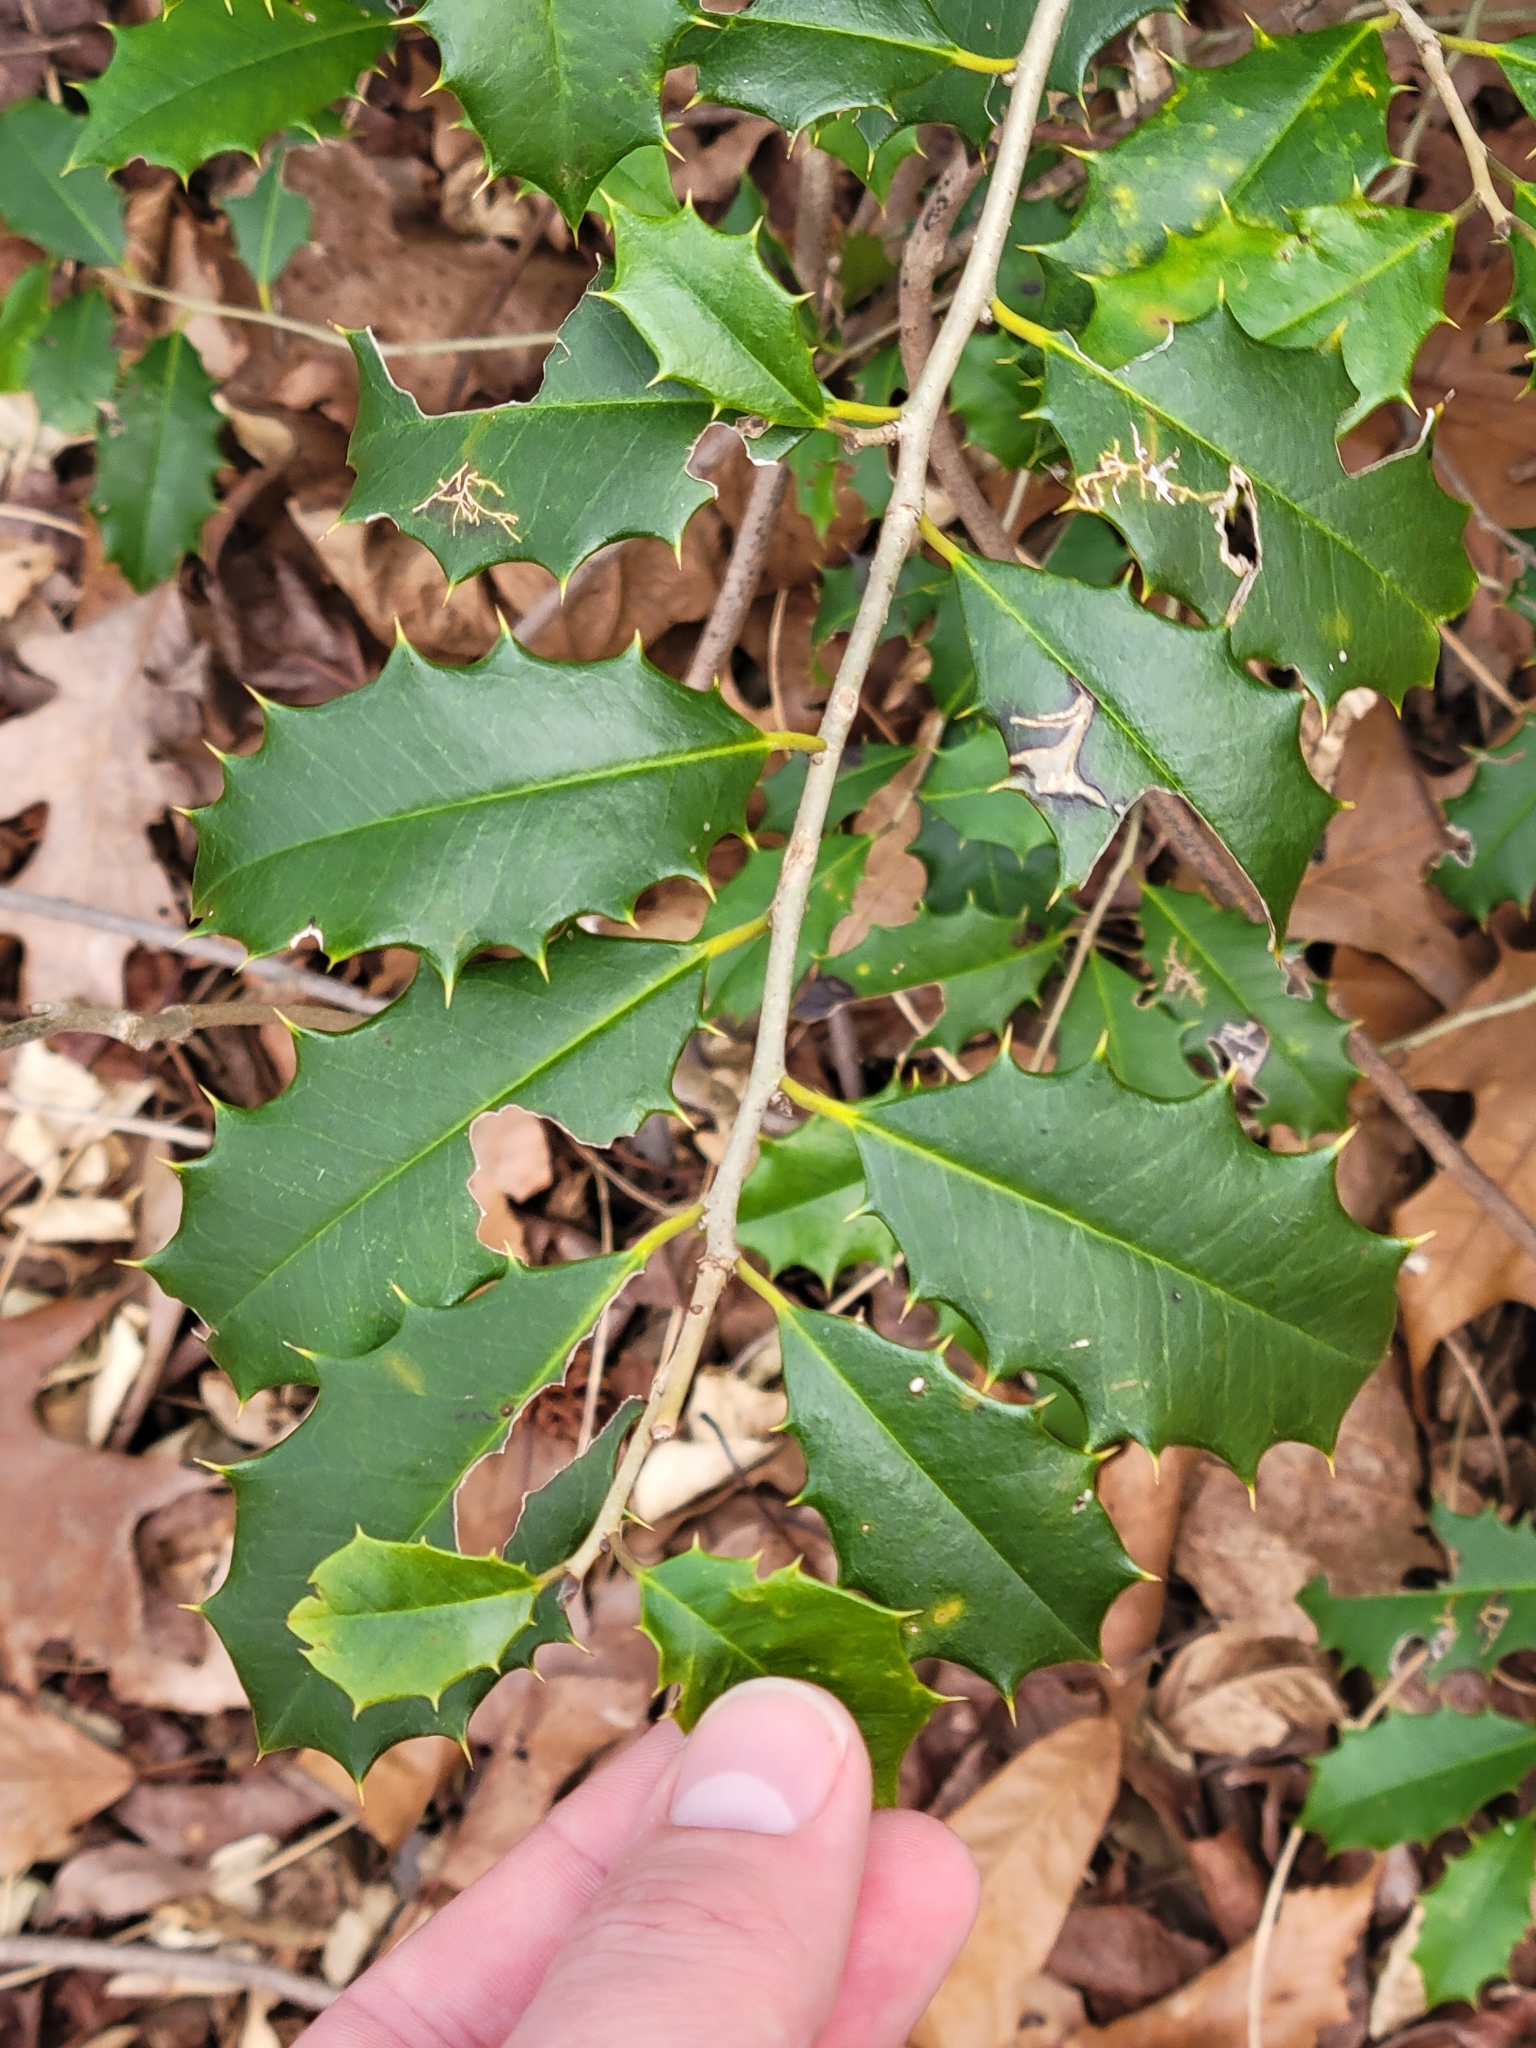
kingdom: Plantae
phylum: Tracheophyta
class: Magnoliopsida
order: Aquifoliales
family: Aquifoliaceae
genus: Ilex
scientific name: Ilex opaca
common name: American holly
